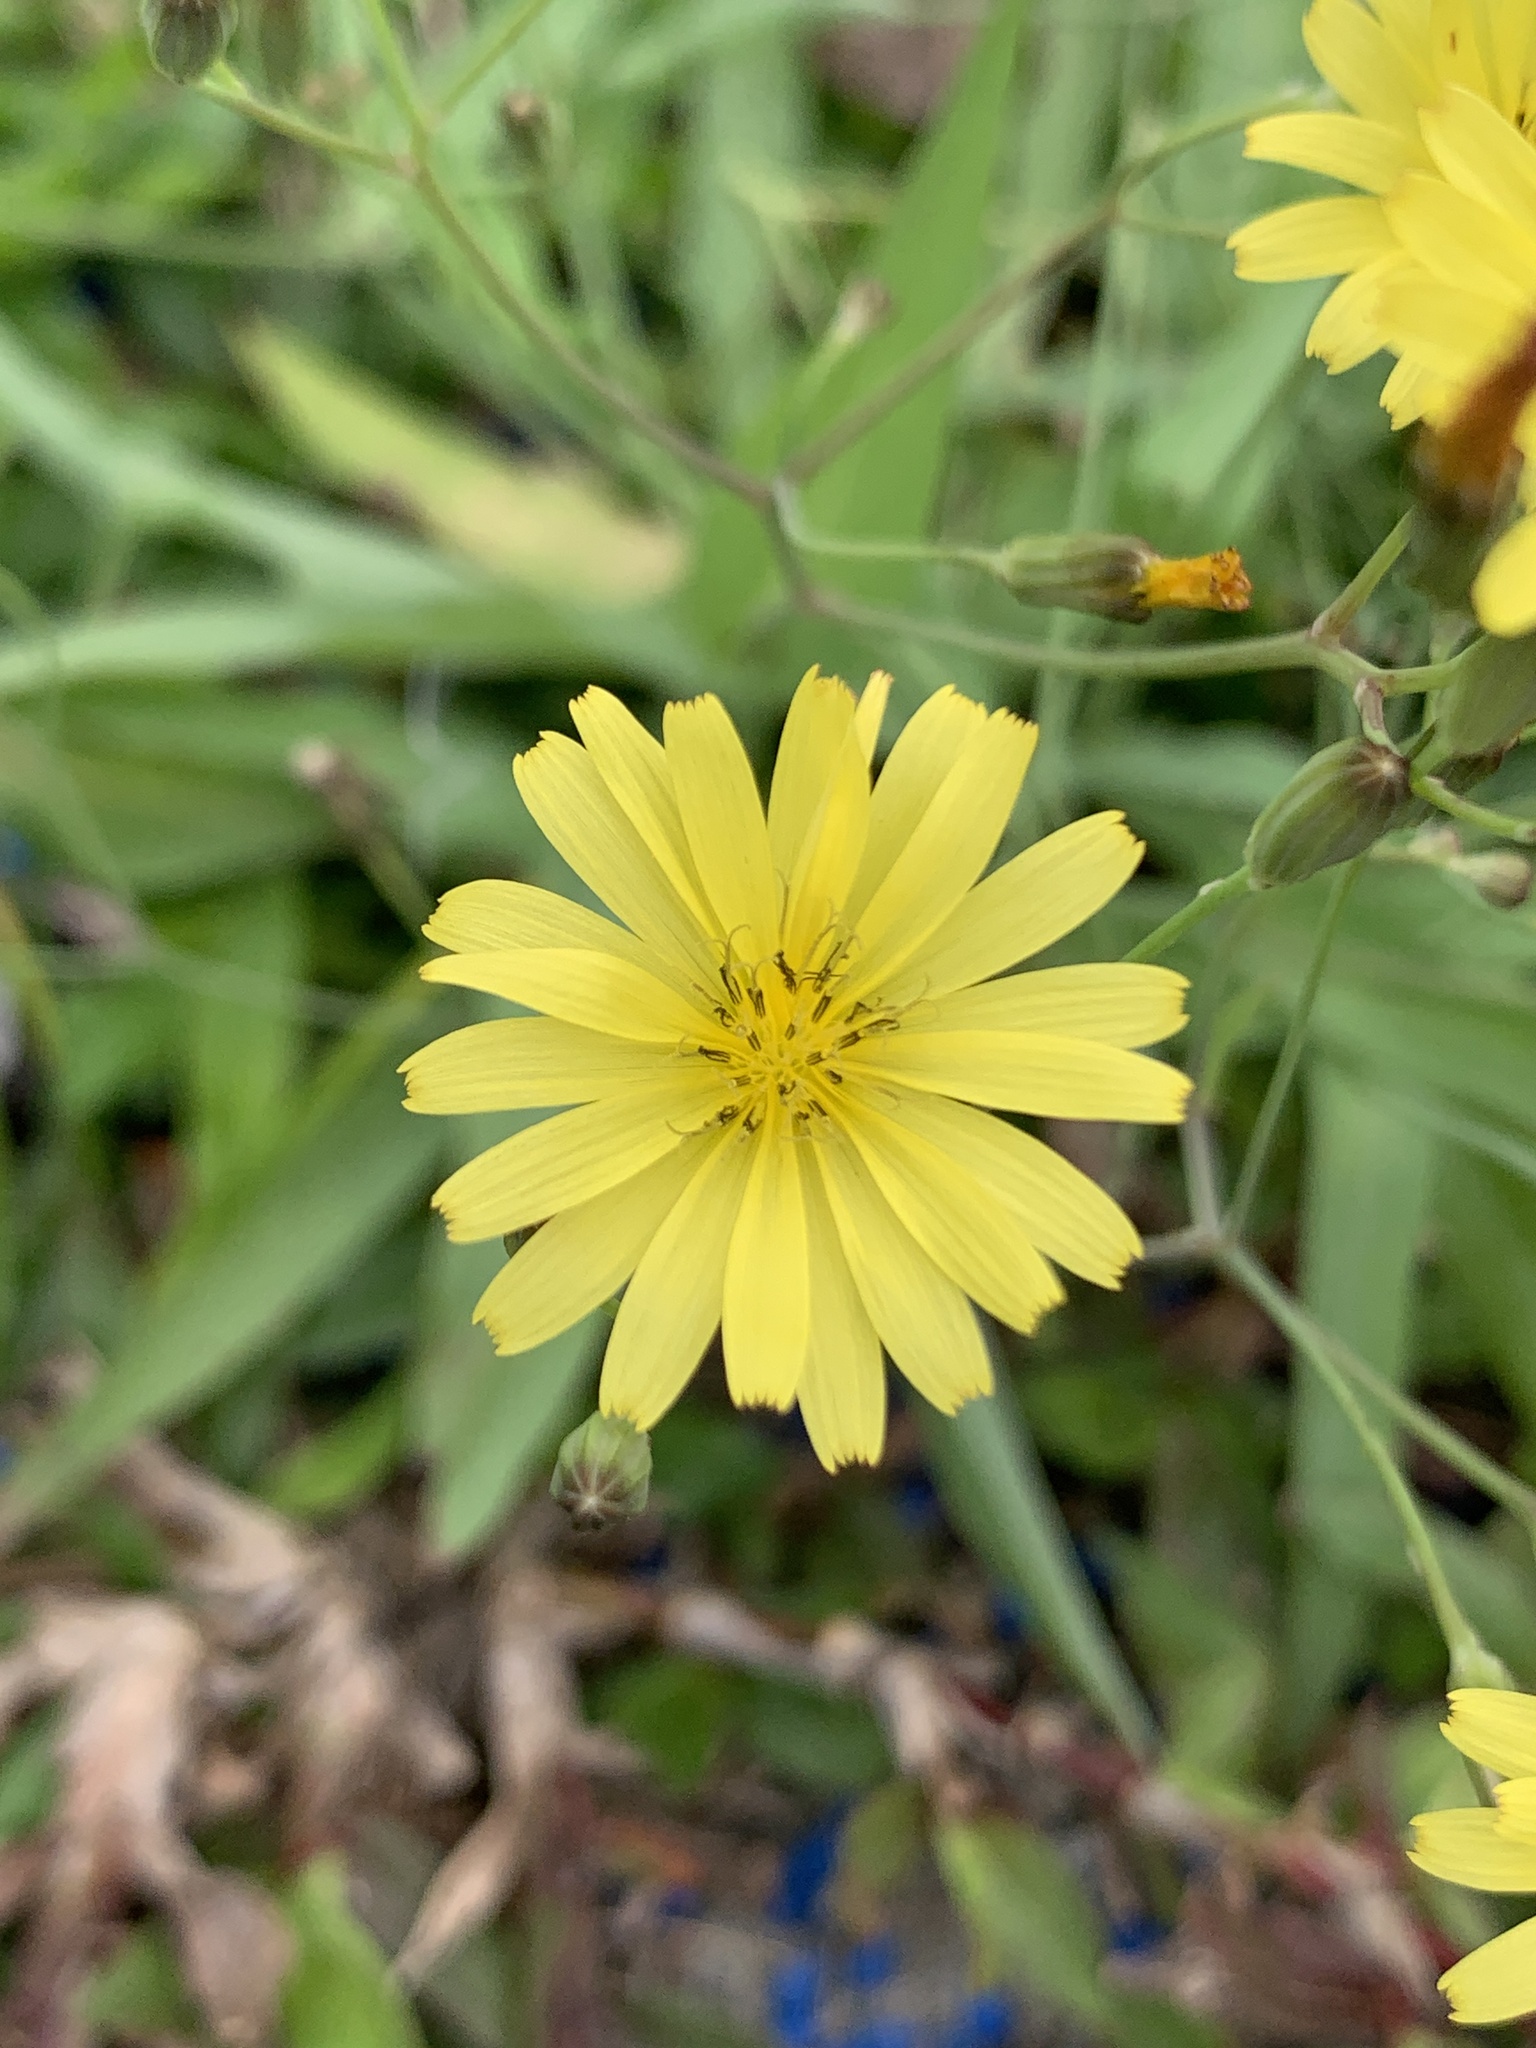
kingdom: Plantae
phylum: Tracheophyta
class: Magnoliopsida
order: Asterales
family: Asteraceae
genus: Ixeris
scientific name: Ixeris chinensis
